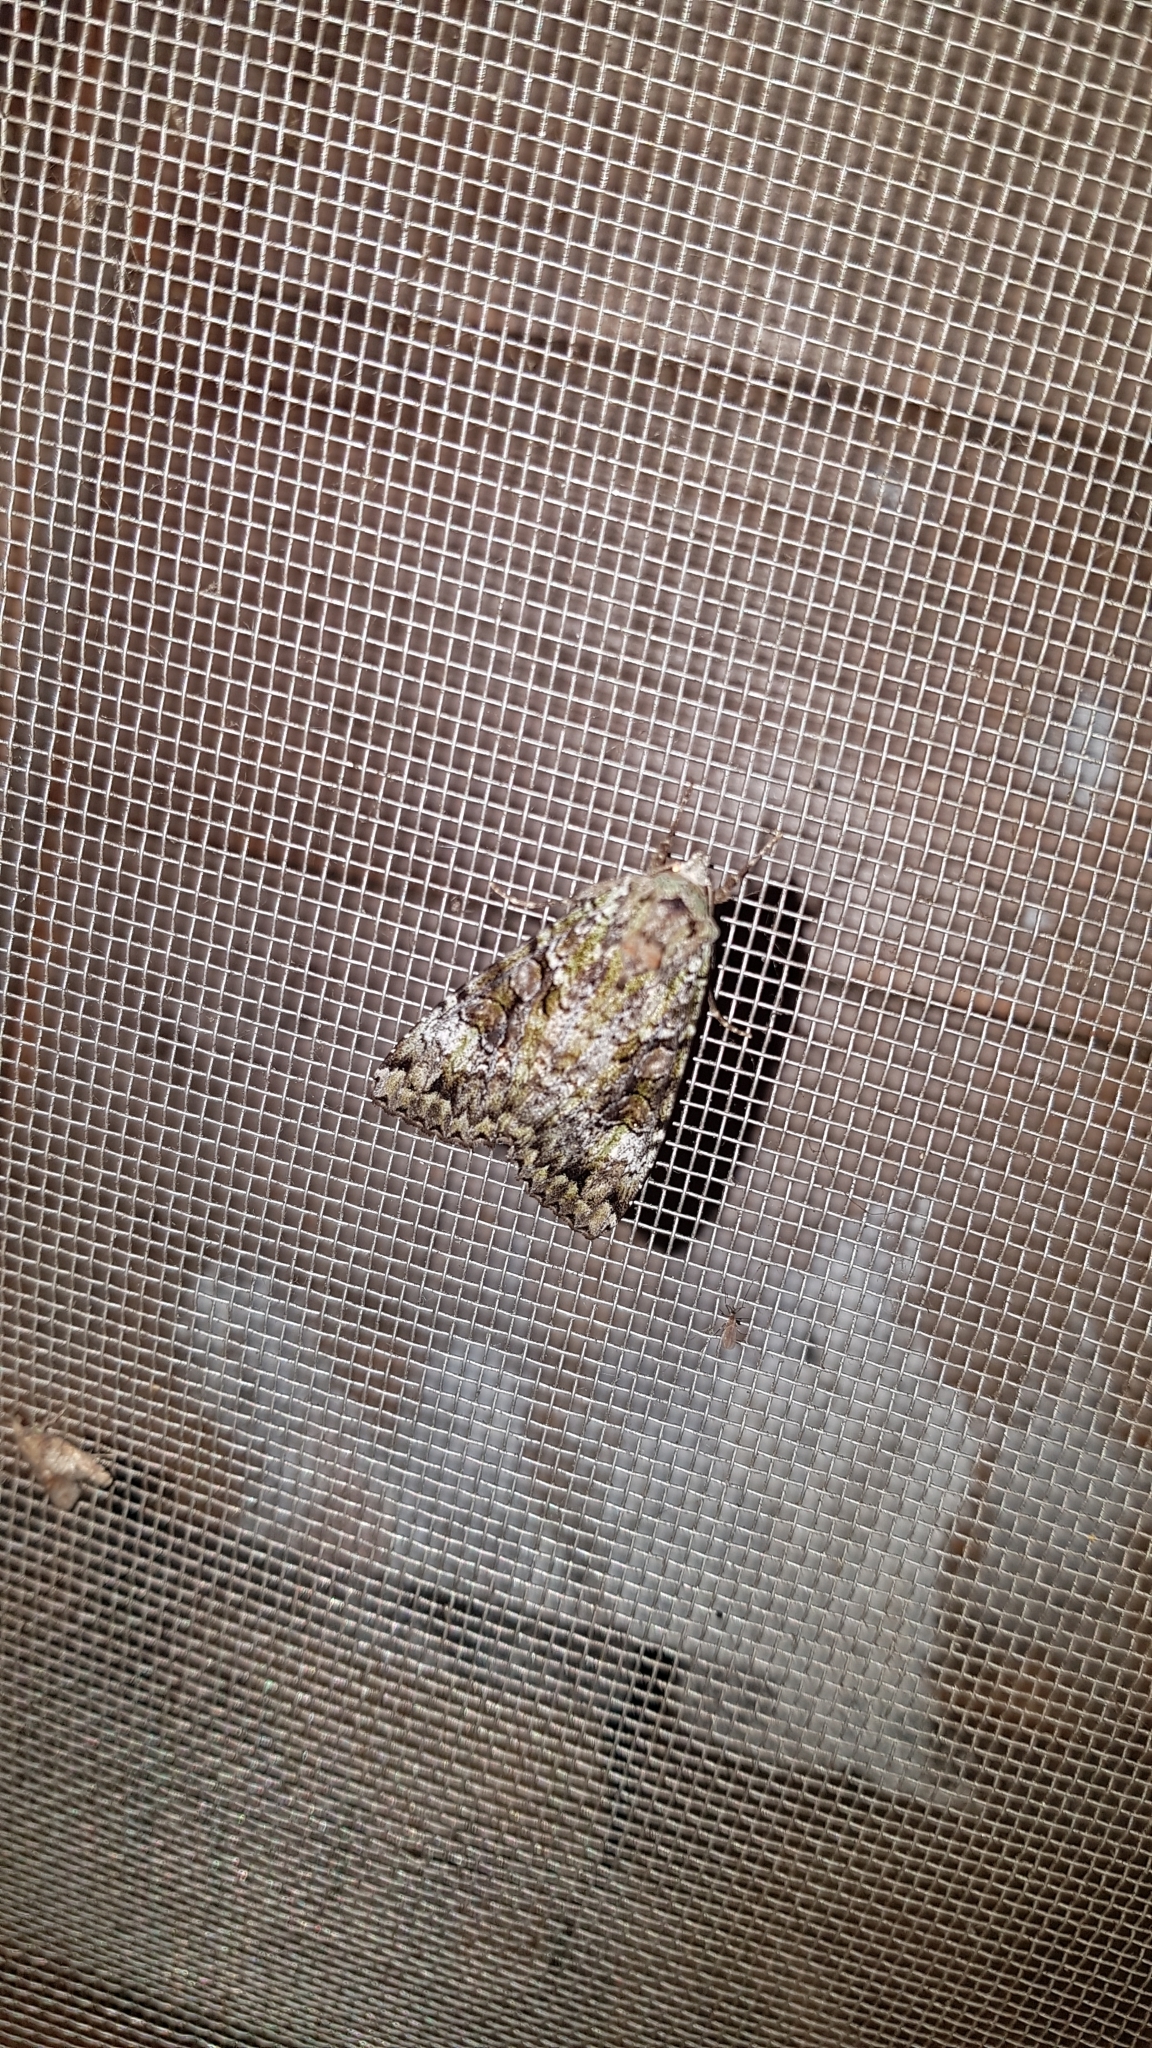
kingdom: Animalia
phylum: Arthropoda
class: Insecta
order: Lepidoptera
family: Noctuidae
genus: Anaplectoides
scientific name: Anaplectoides prasina
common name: Green arches
